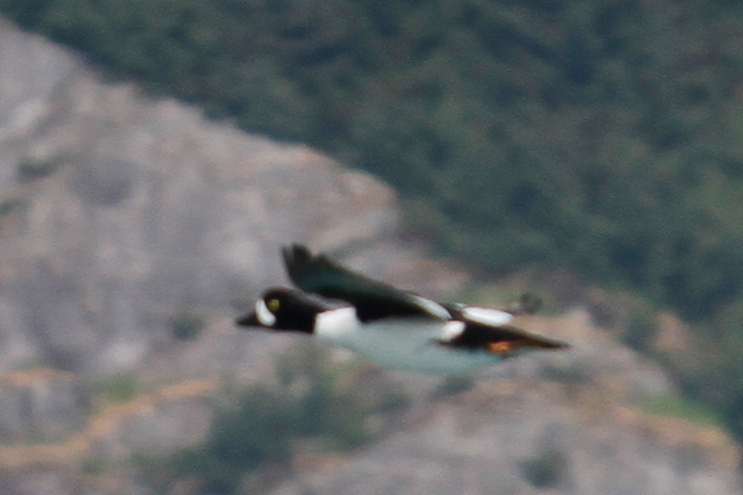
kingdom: Animalia
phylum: Chordata
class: Aves
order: Anseriformes
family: Anatidae
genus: Bucephala
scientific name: Bucephala islandica
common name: Barrow's goldeneye
